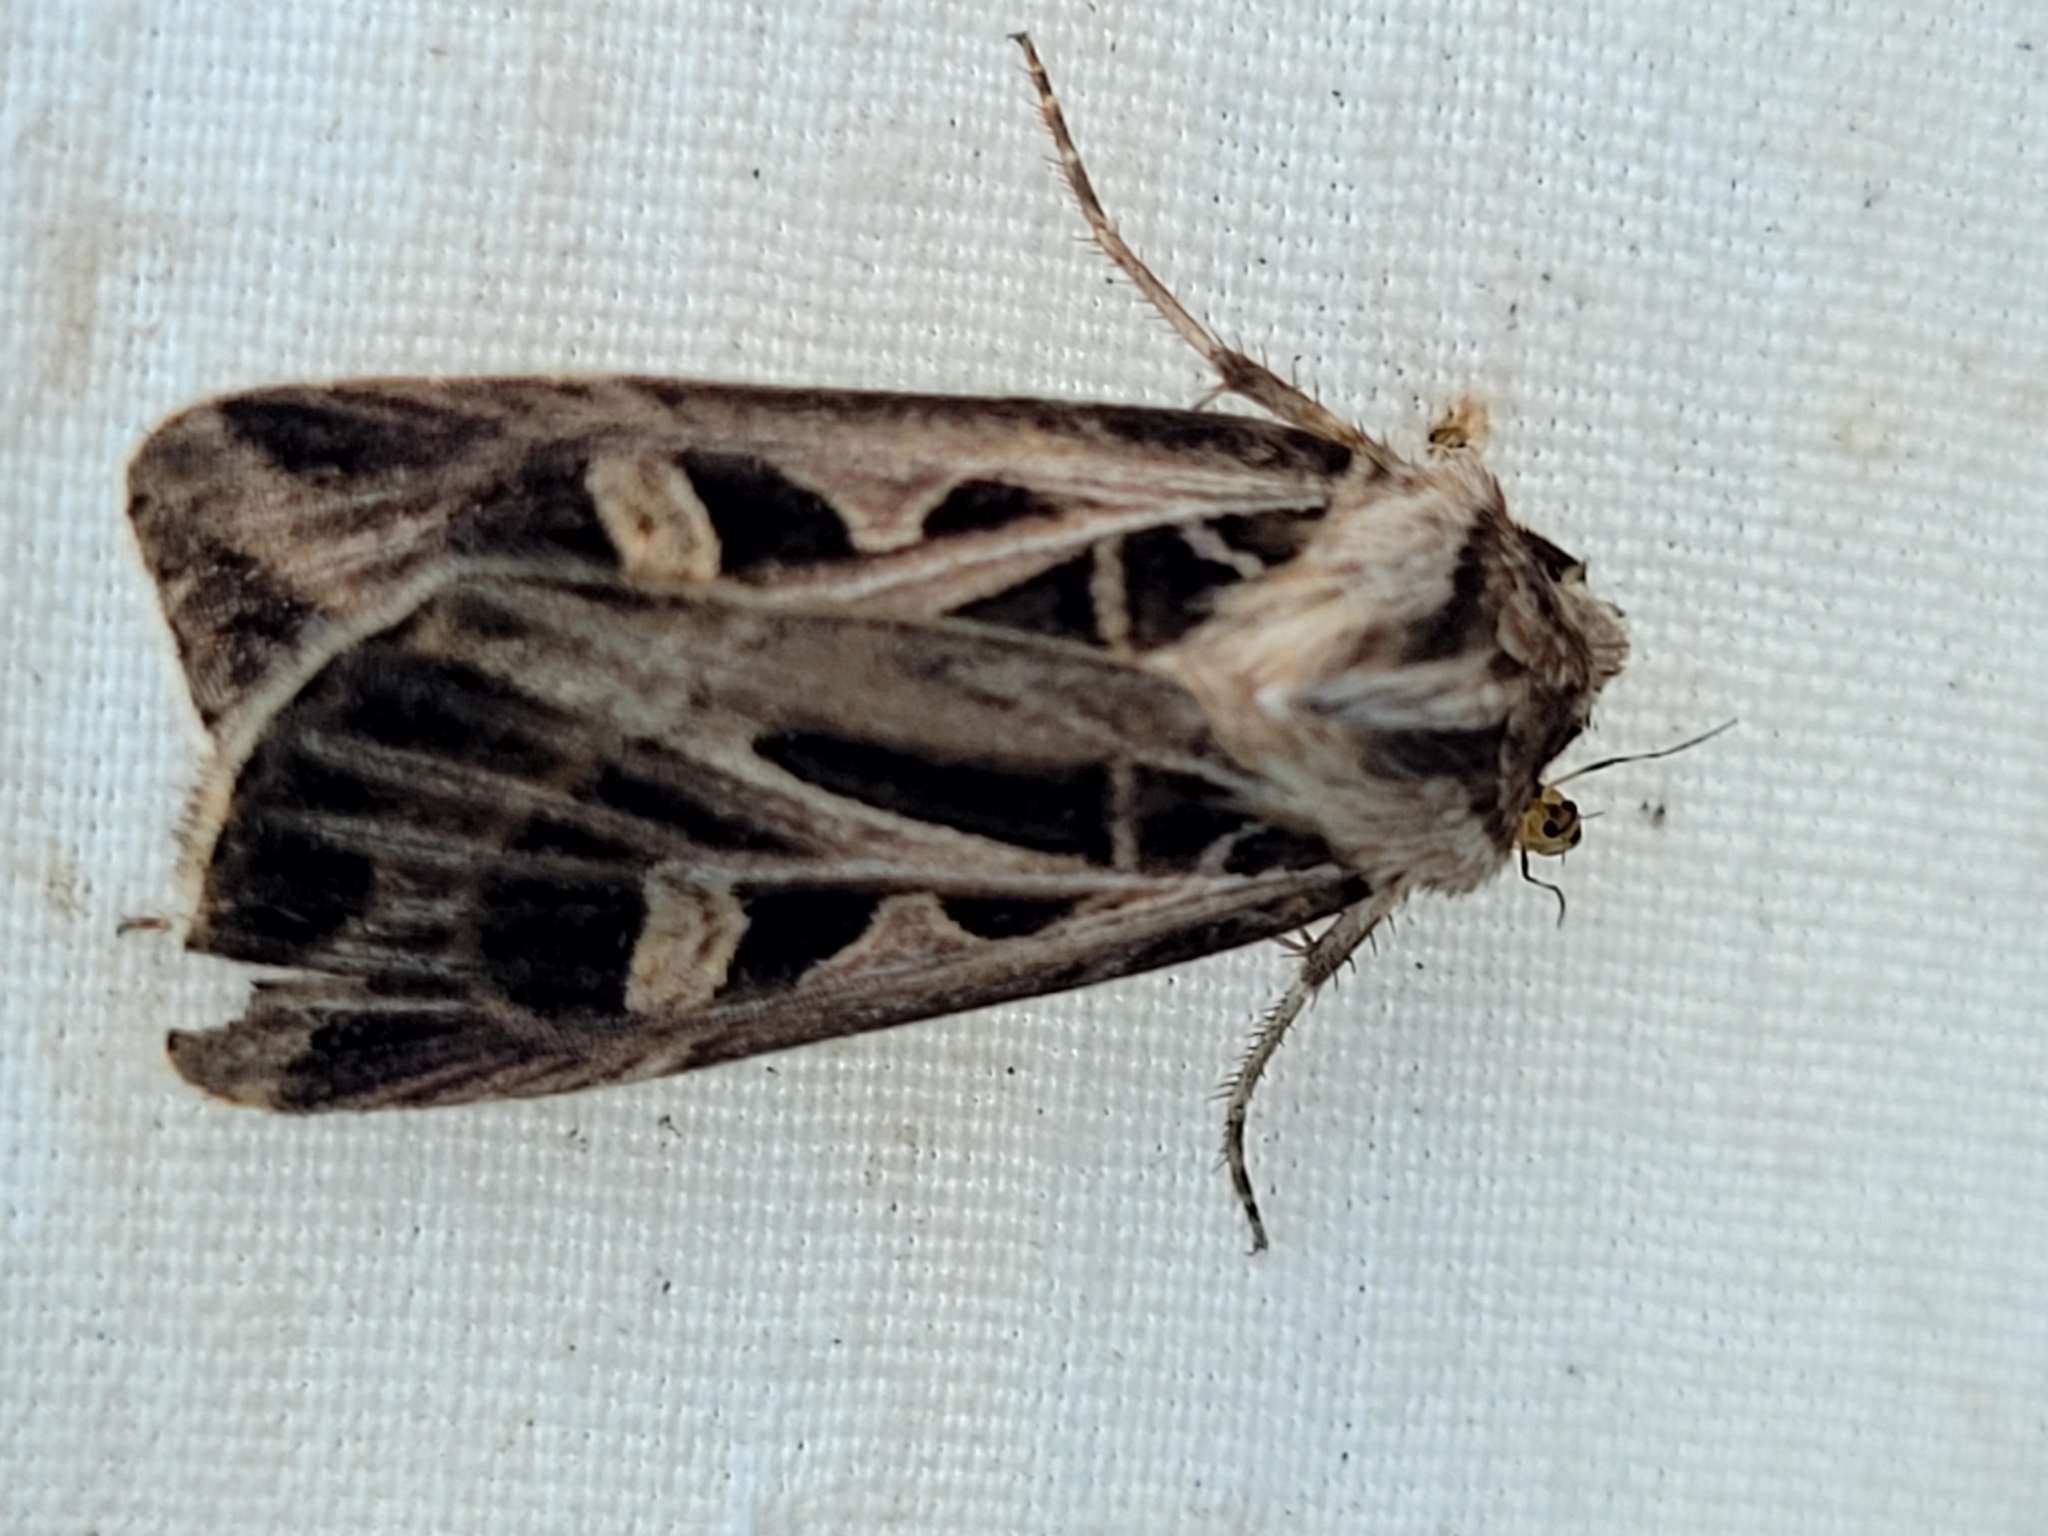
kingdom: Animalia
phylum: Arthropoda
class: Insecta
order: Lepidoptera
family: Noctuidae
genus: Feltia
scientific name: Feltia jaculifera
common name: Dingy cutworm moth
